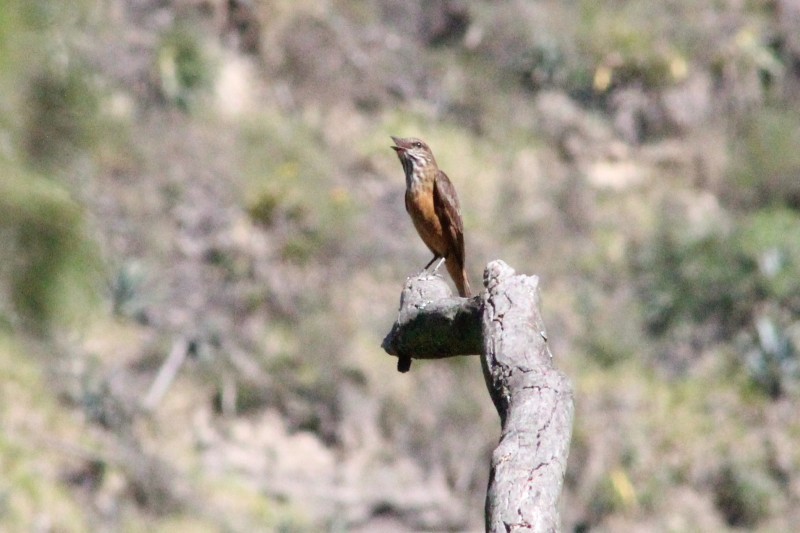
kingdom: Animalia
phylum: Chordata
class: Aves
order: Passeriformes
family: Tyrannidae
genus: Myiotheretes
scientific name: Myiotheretes striaticollis
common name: Streak-throated bush tyrant
